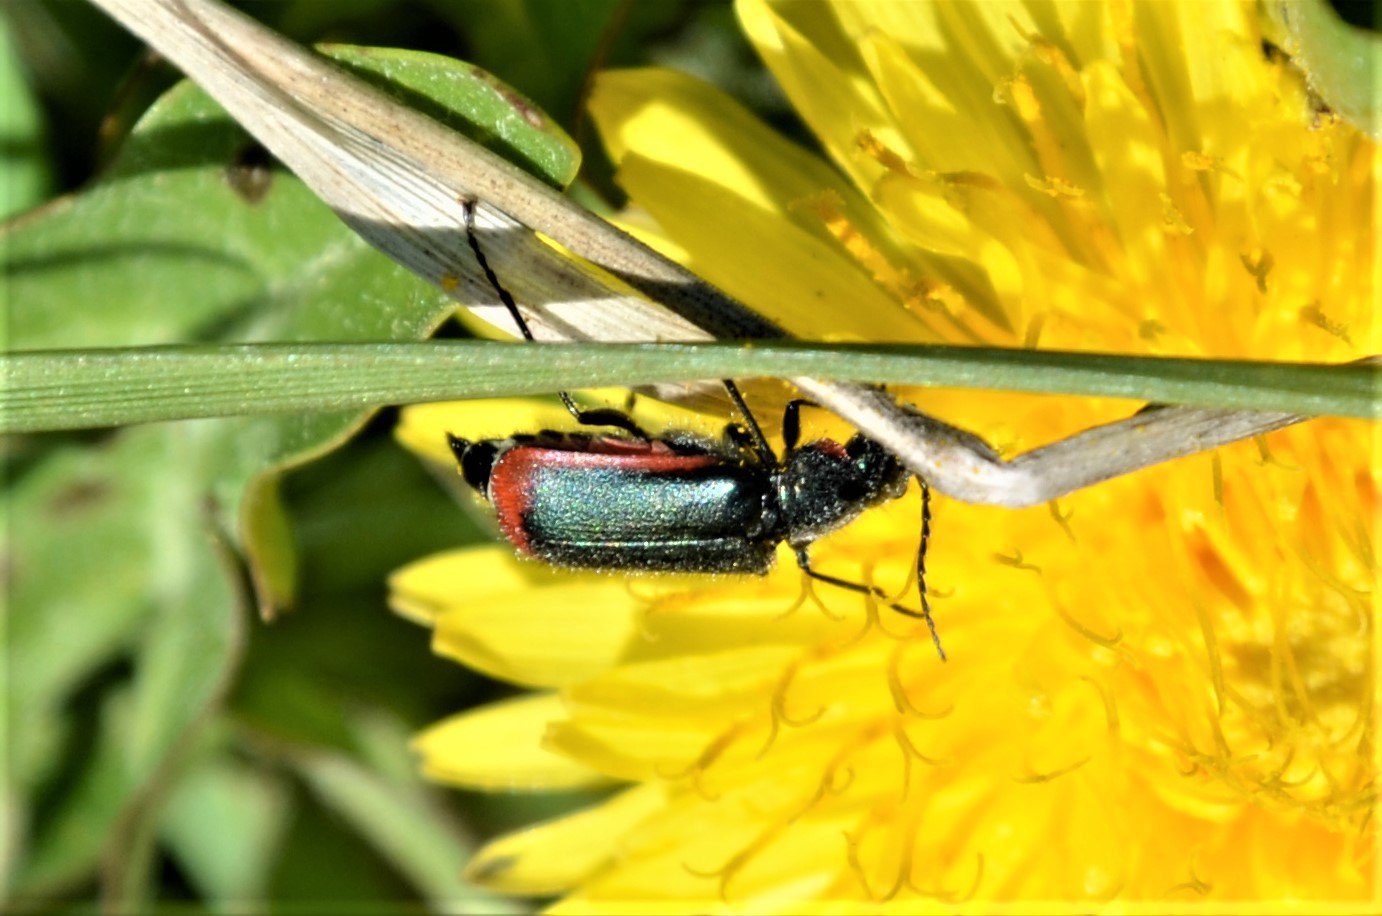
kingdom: Animalia
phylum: Arthropoda
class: Insecta
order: Coleoptera
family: Melyridae
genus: Malachius
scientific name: Malachius aeneus
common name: Scarlet malachite beetle
